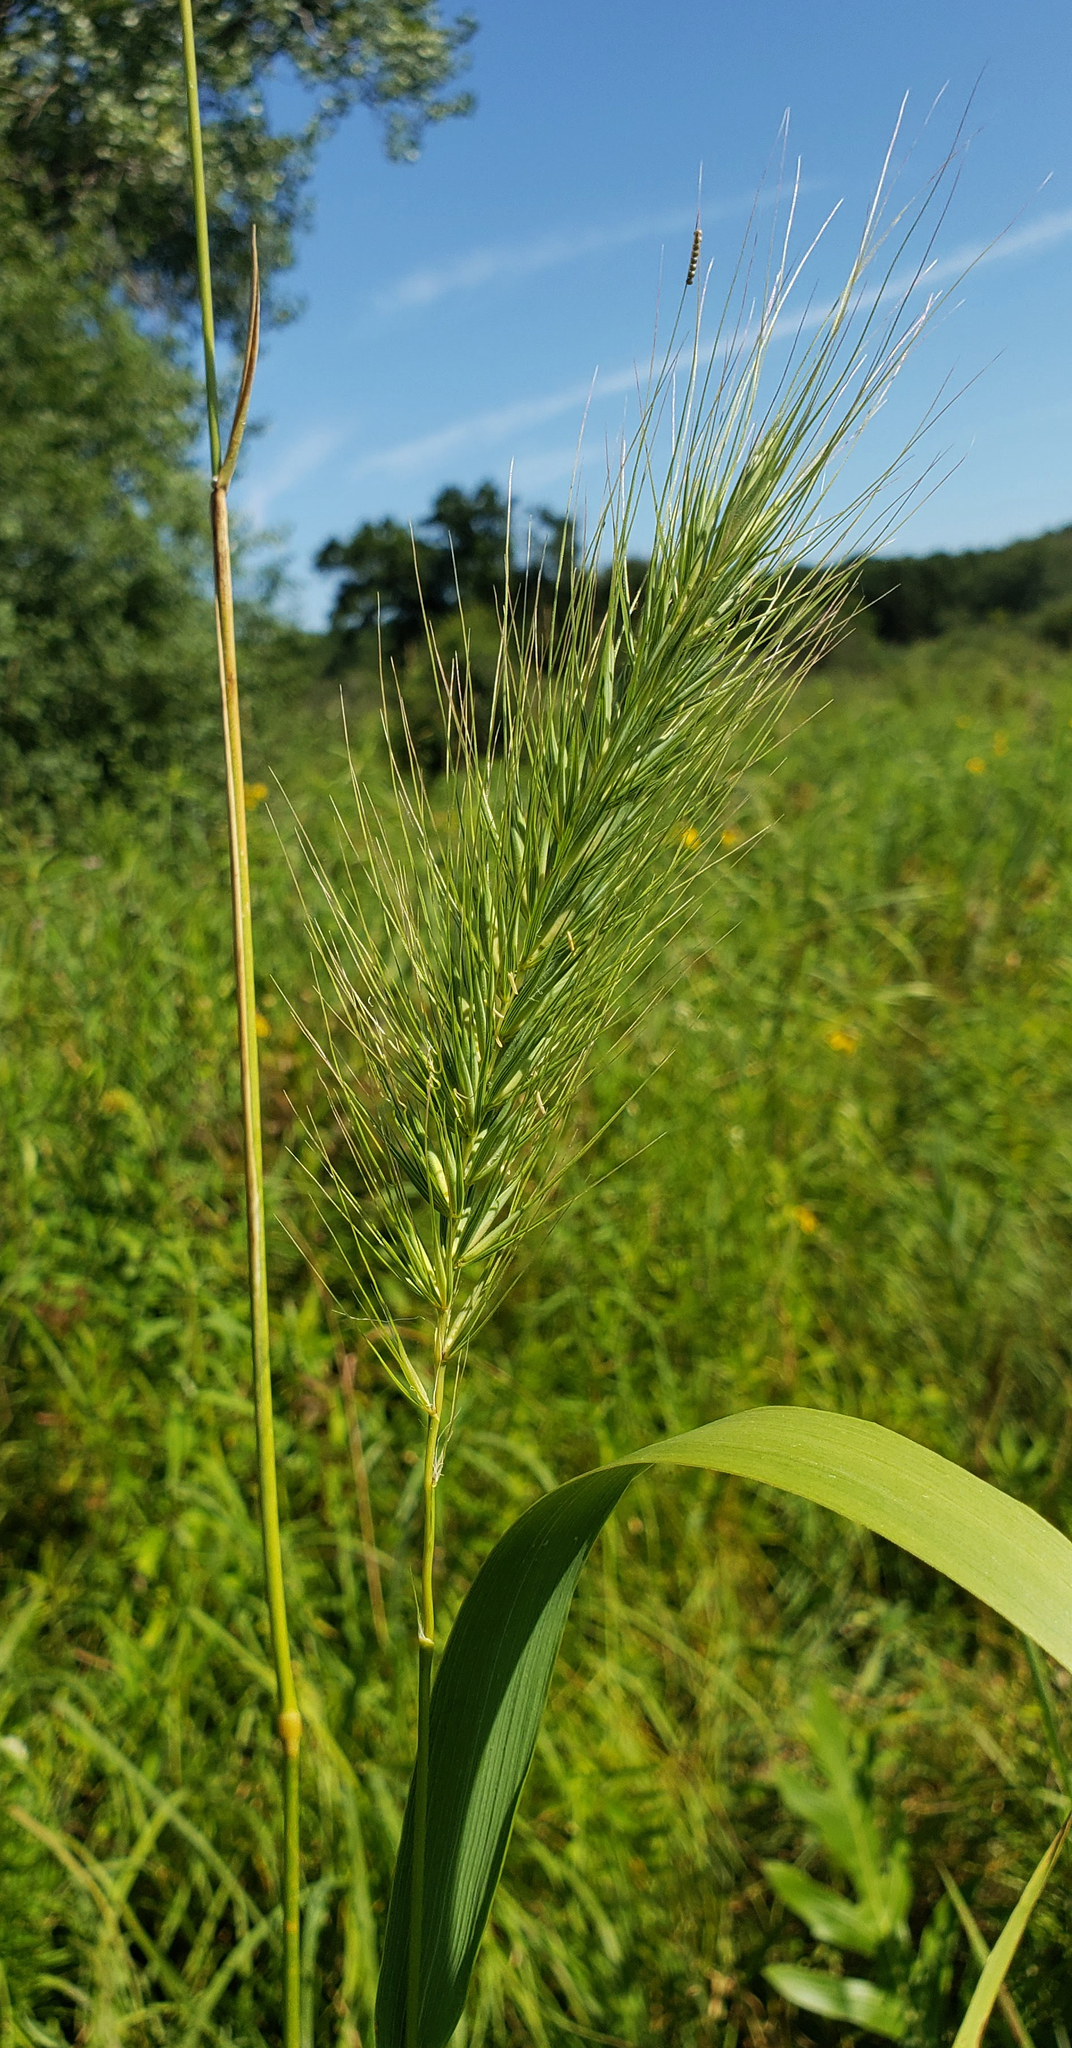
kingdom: Plantae
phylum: Tracheophyta
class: Liliopsida
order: Poales
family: Poaceae
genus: Elymus
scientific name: Elymus canadensis
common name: Canada wild rye
